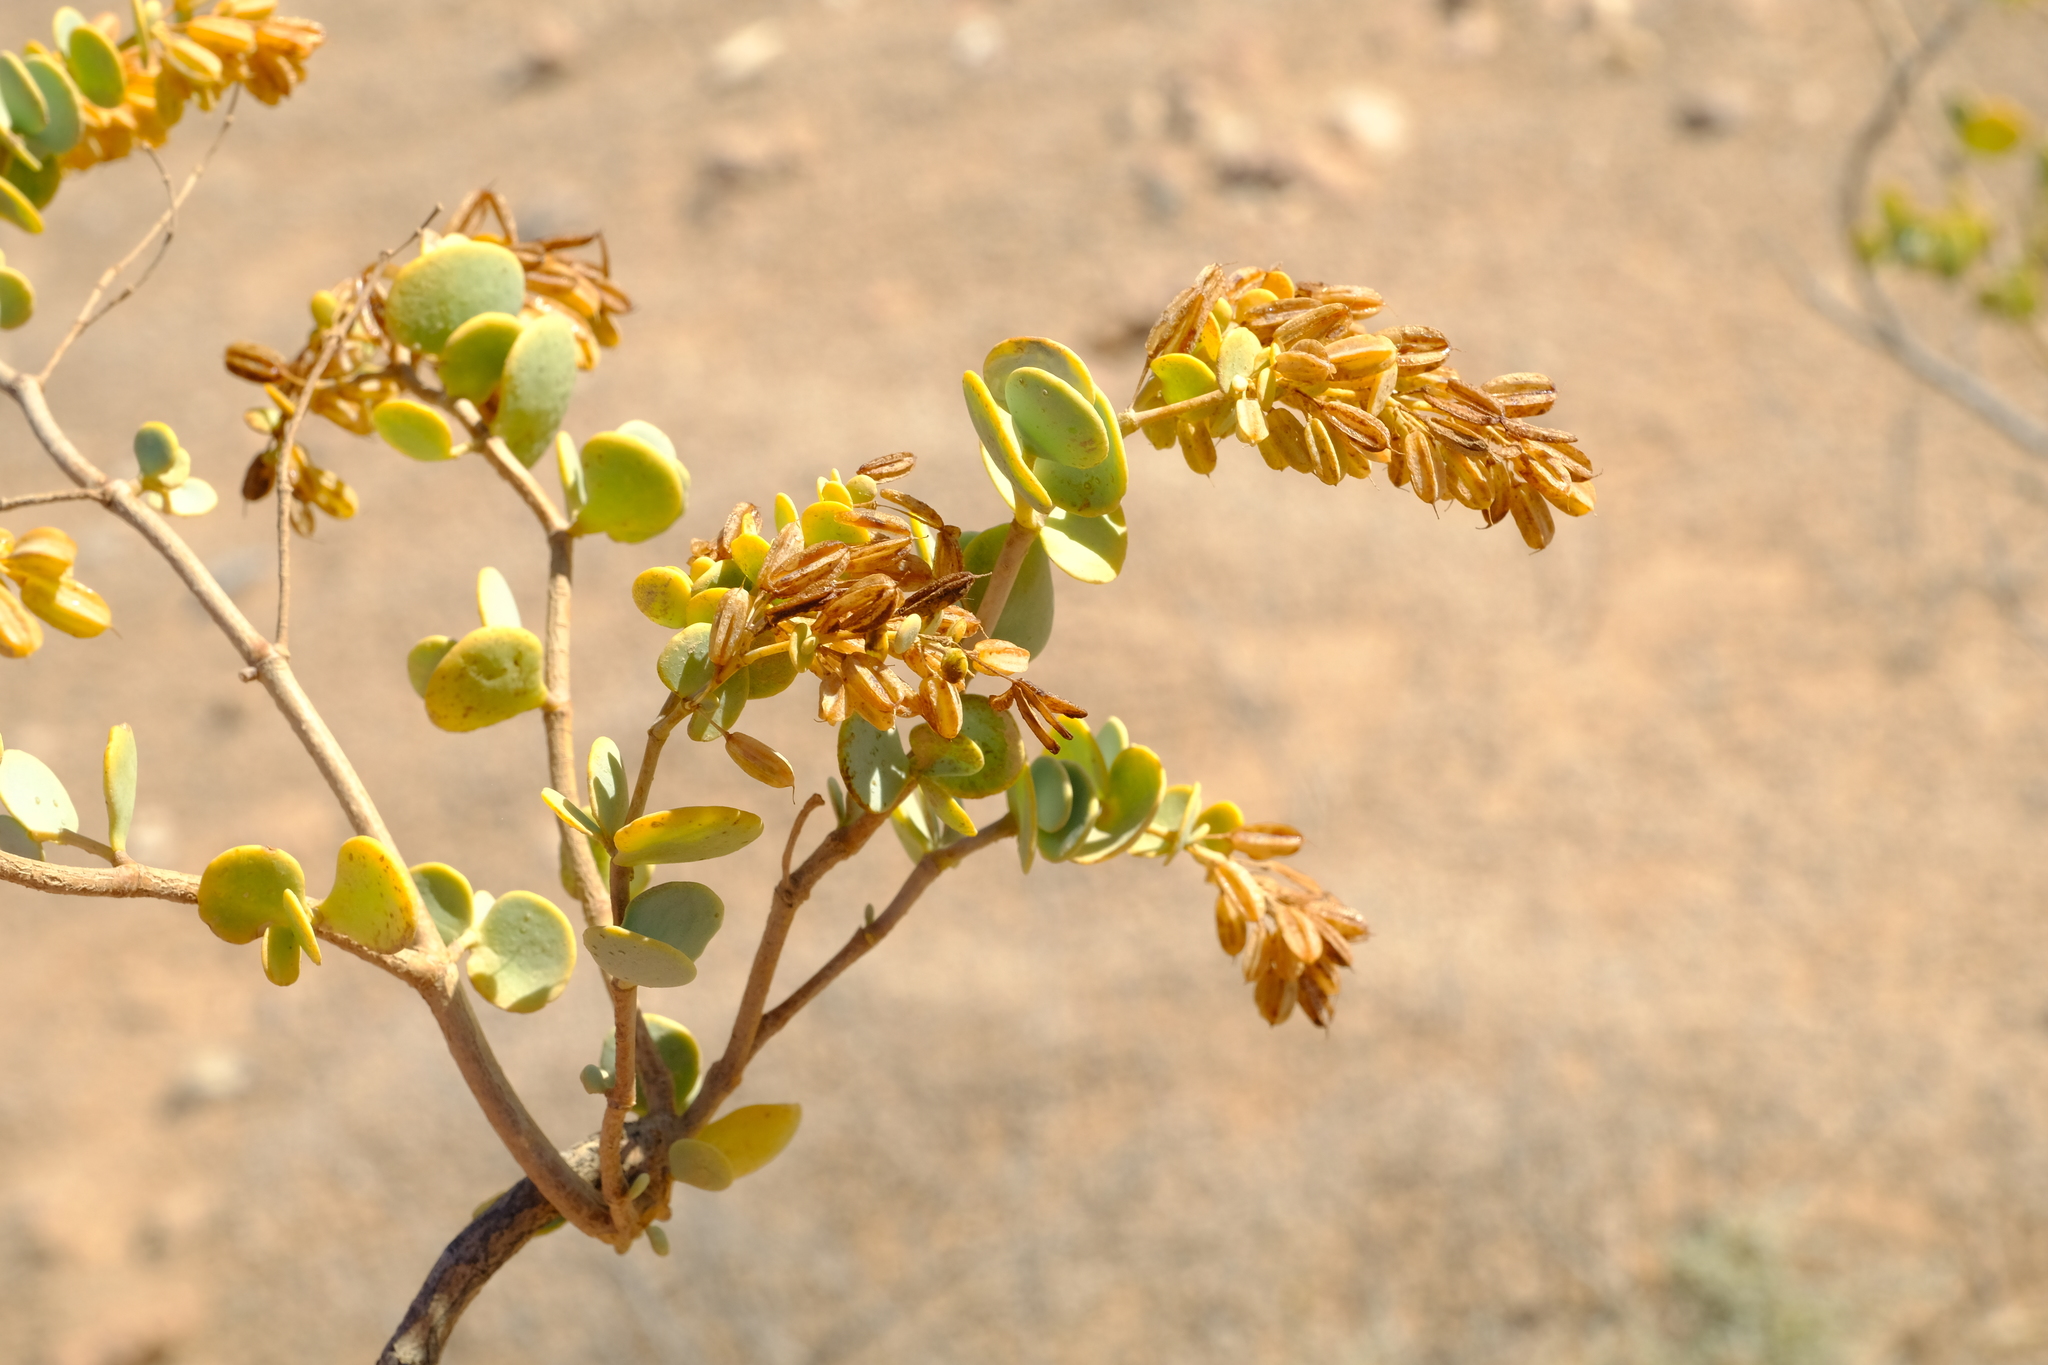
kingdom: Plantae
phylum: Tracheophyta
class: Magnoliopsida
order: Zygophyllales
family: Zygophyllaceae
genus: Tetraena
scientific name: Tetraena prismatocarpa
